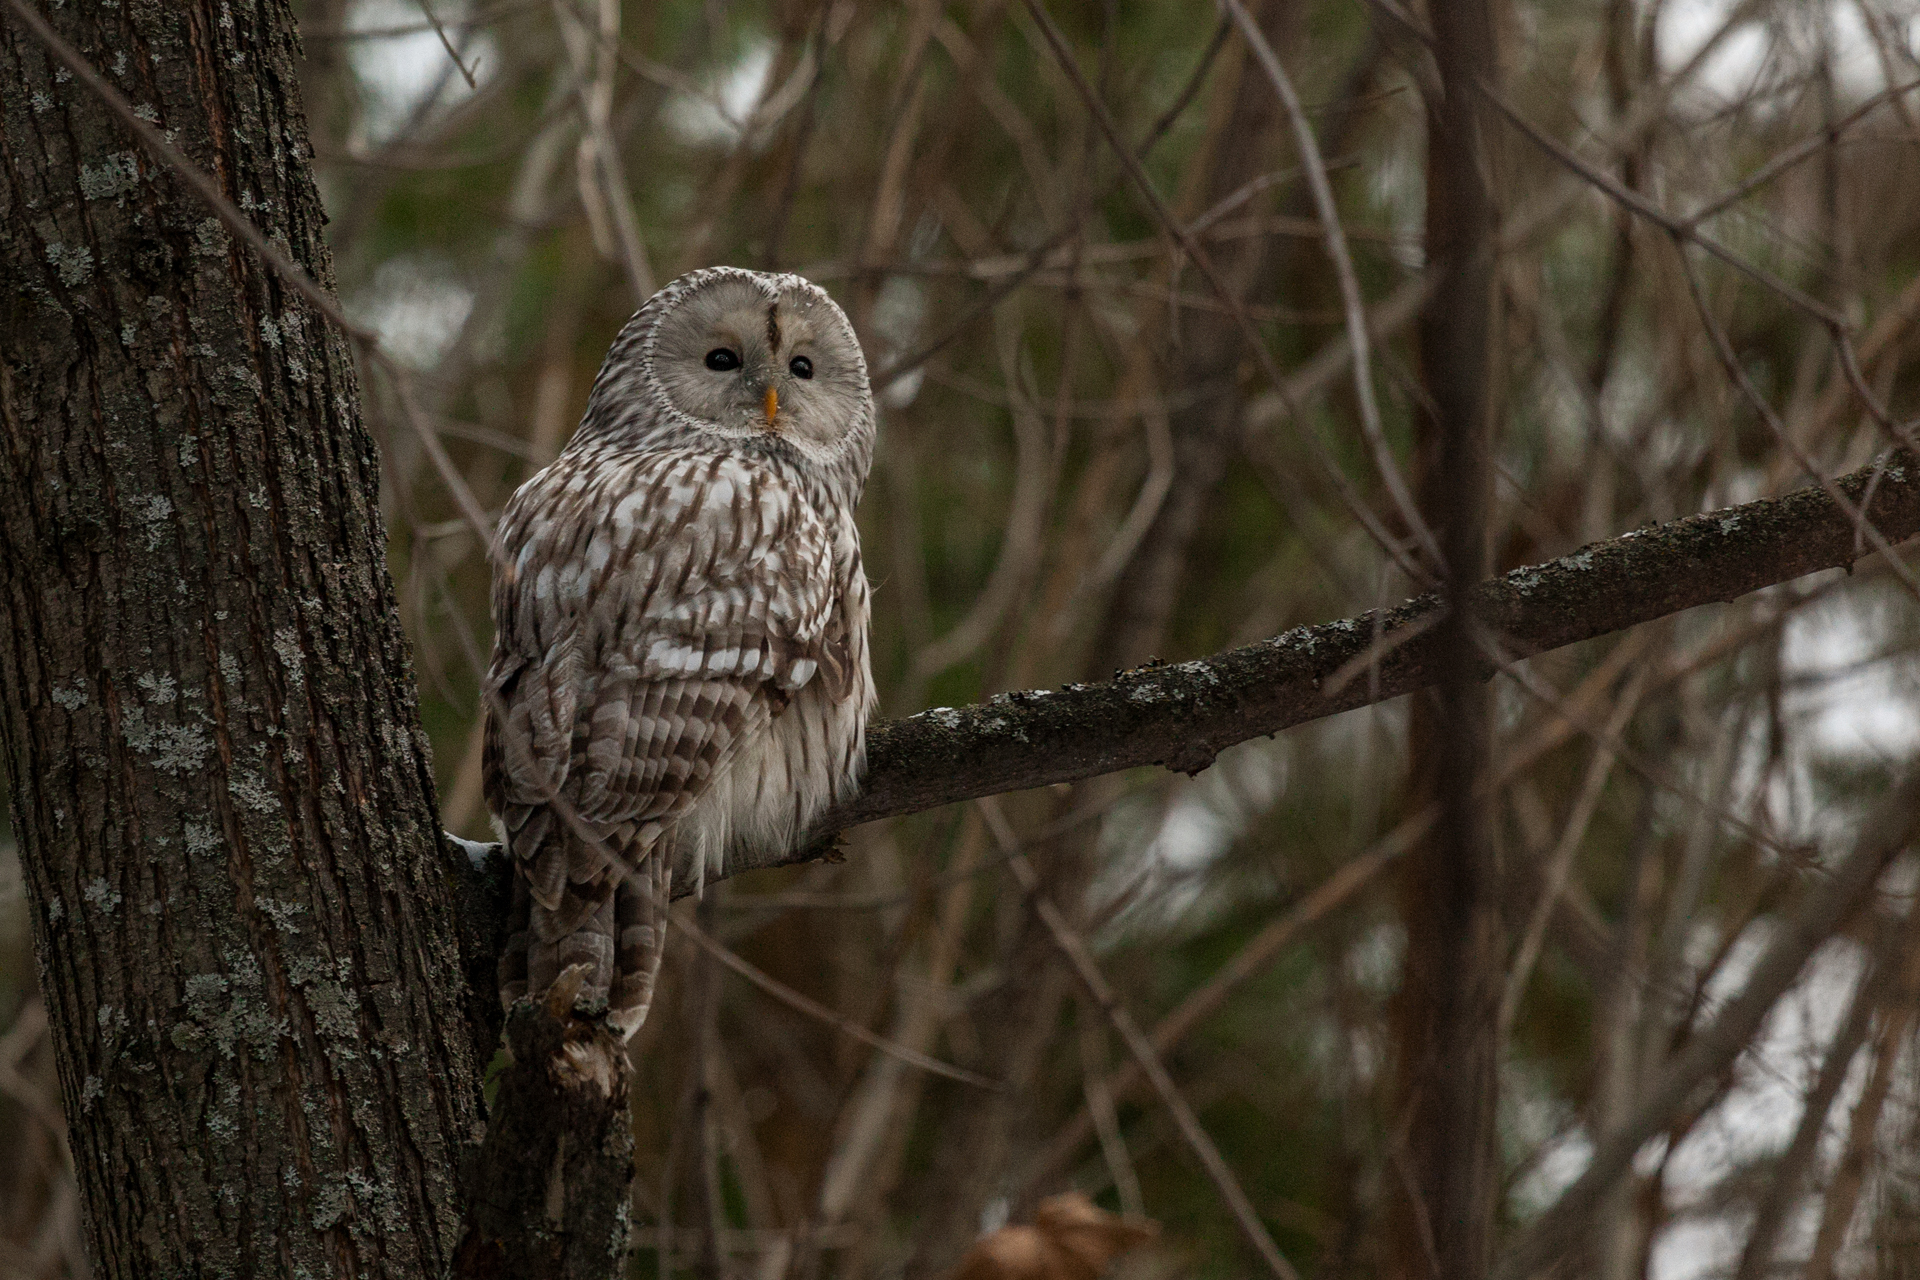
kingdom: Animalia
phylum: Chordata
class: Aves
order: Strigiformes
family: Strigidae
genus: Strix
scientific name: Strix uralensis
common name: Ural owl
